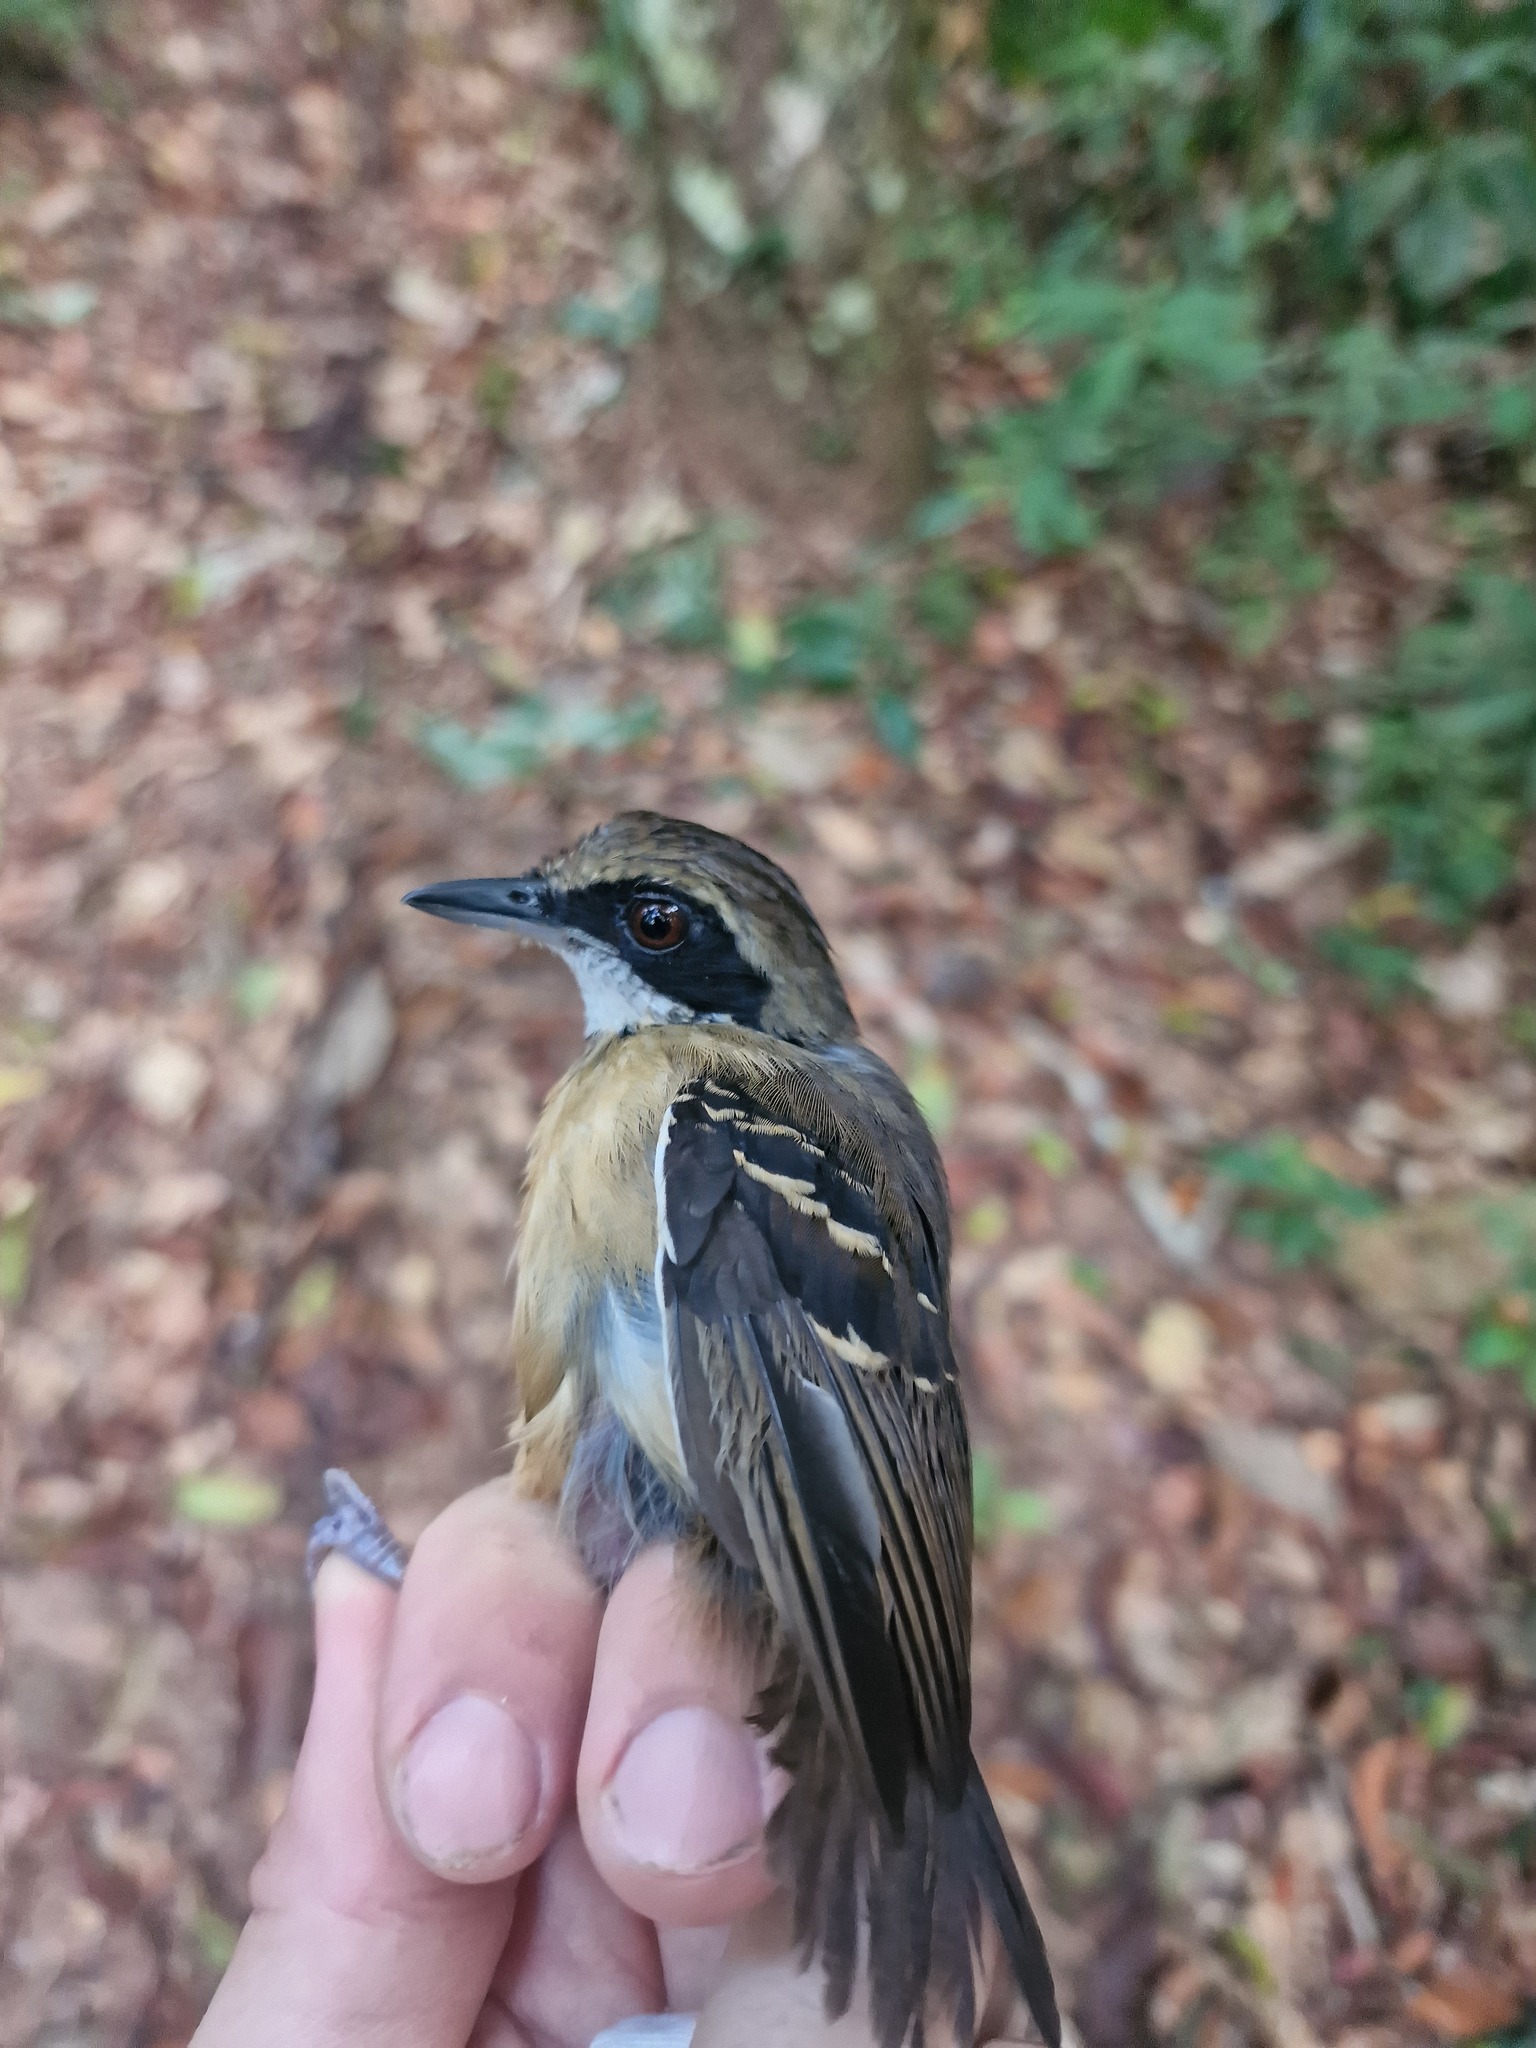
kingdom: Animalia
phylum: Chordata
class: Aves
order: Passeriformes
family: Thamnophilidae
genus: Myrmoborus
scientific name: Myrmoborus myotherinus
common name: Black-faced antbird
